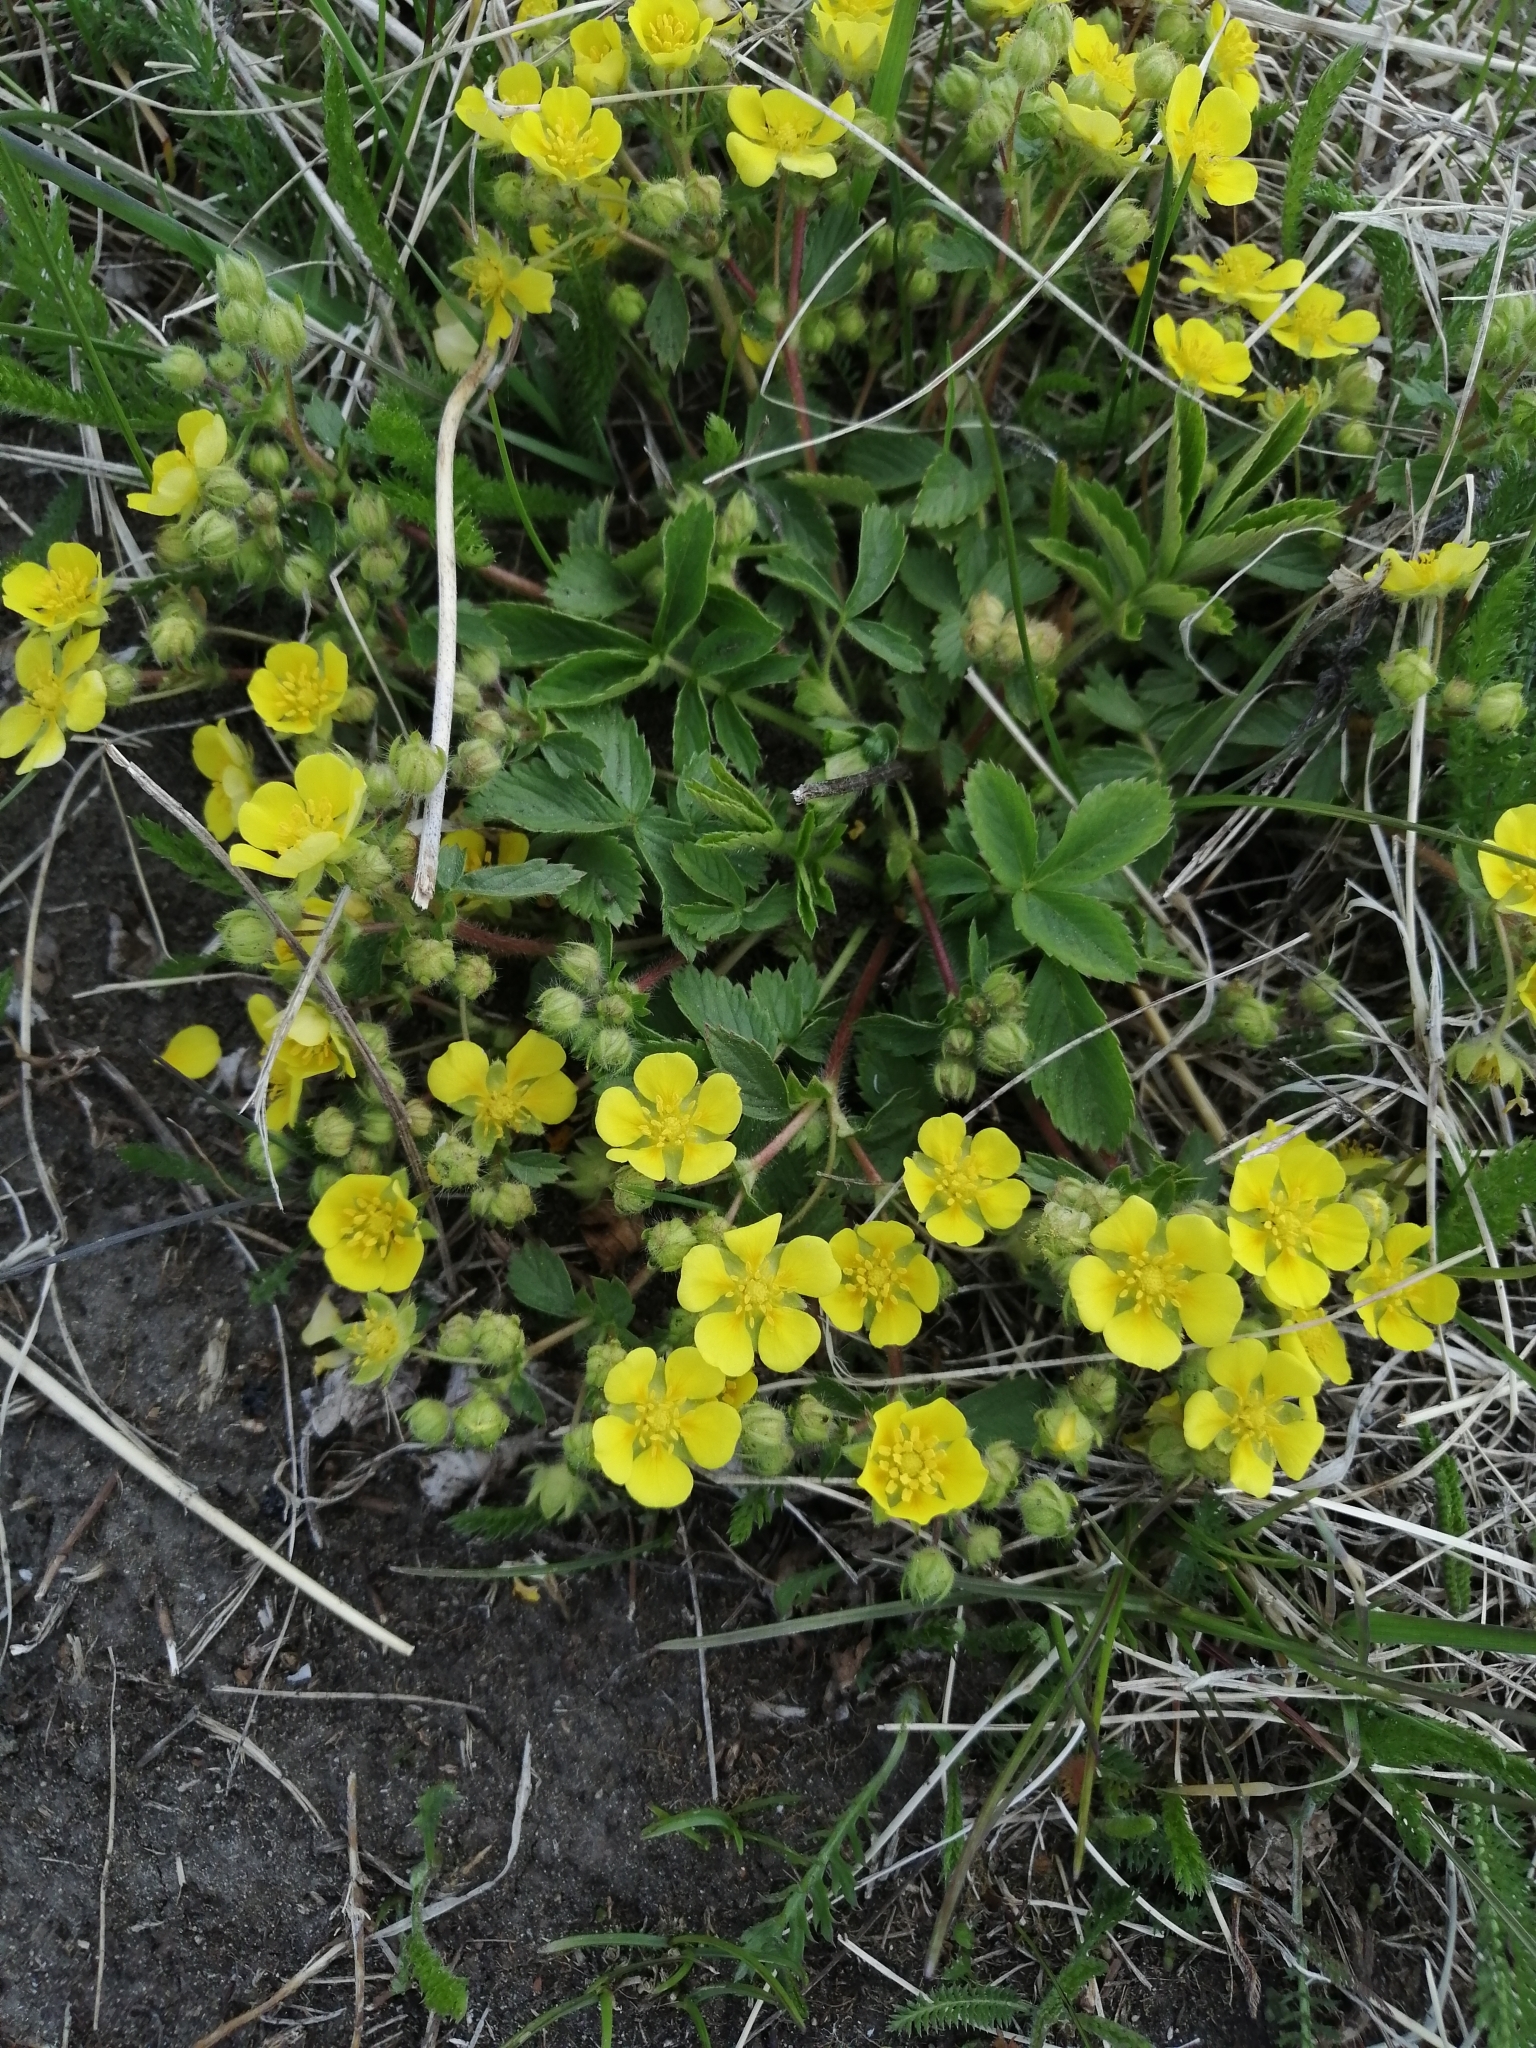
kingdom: Plantae
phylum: Tracheophyta
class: Magnoliopsida
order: Rosales
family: Rosaceae
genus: Potentilla
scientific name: Potentilla fragarioides
